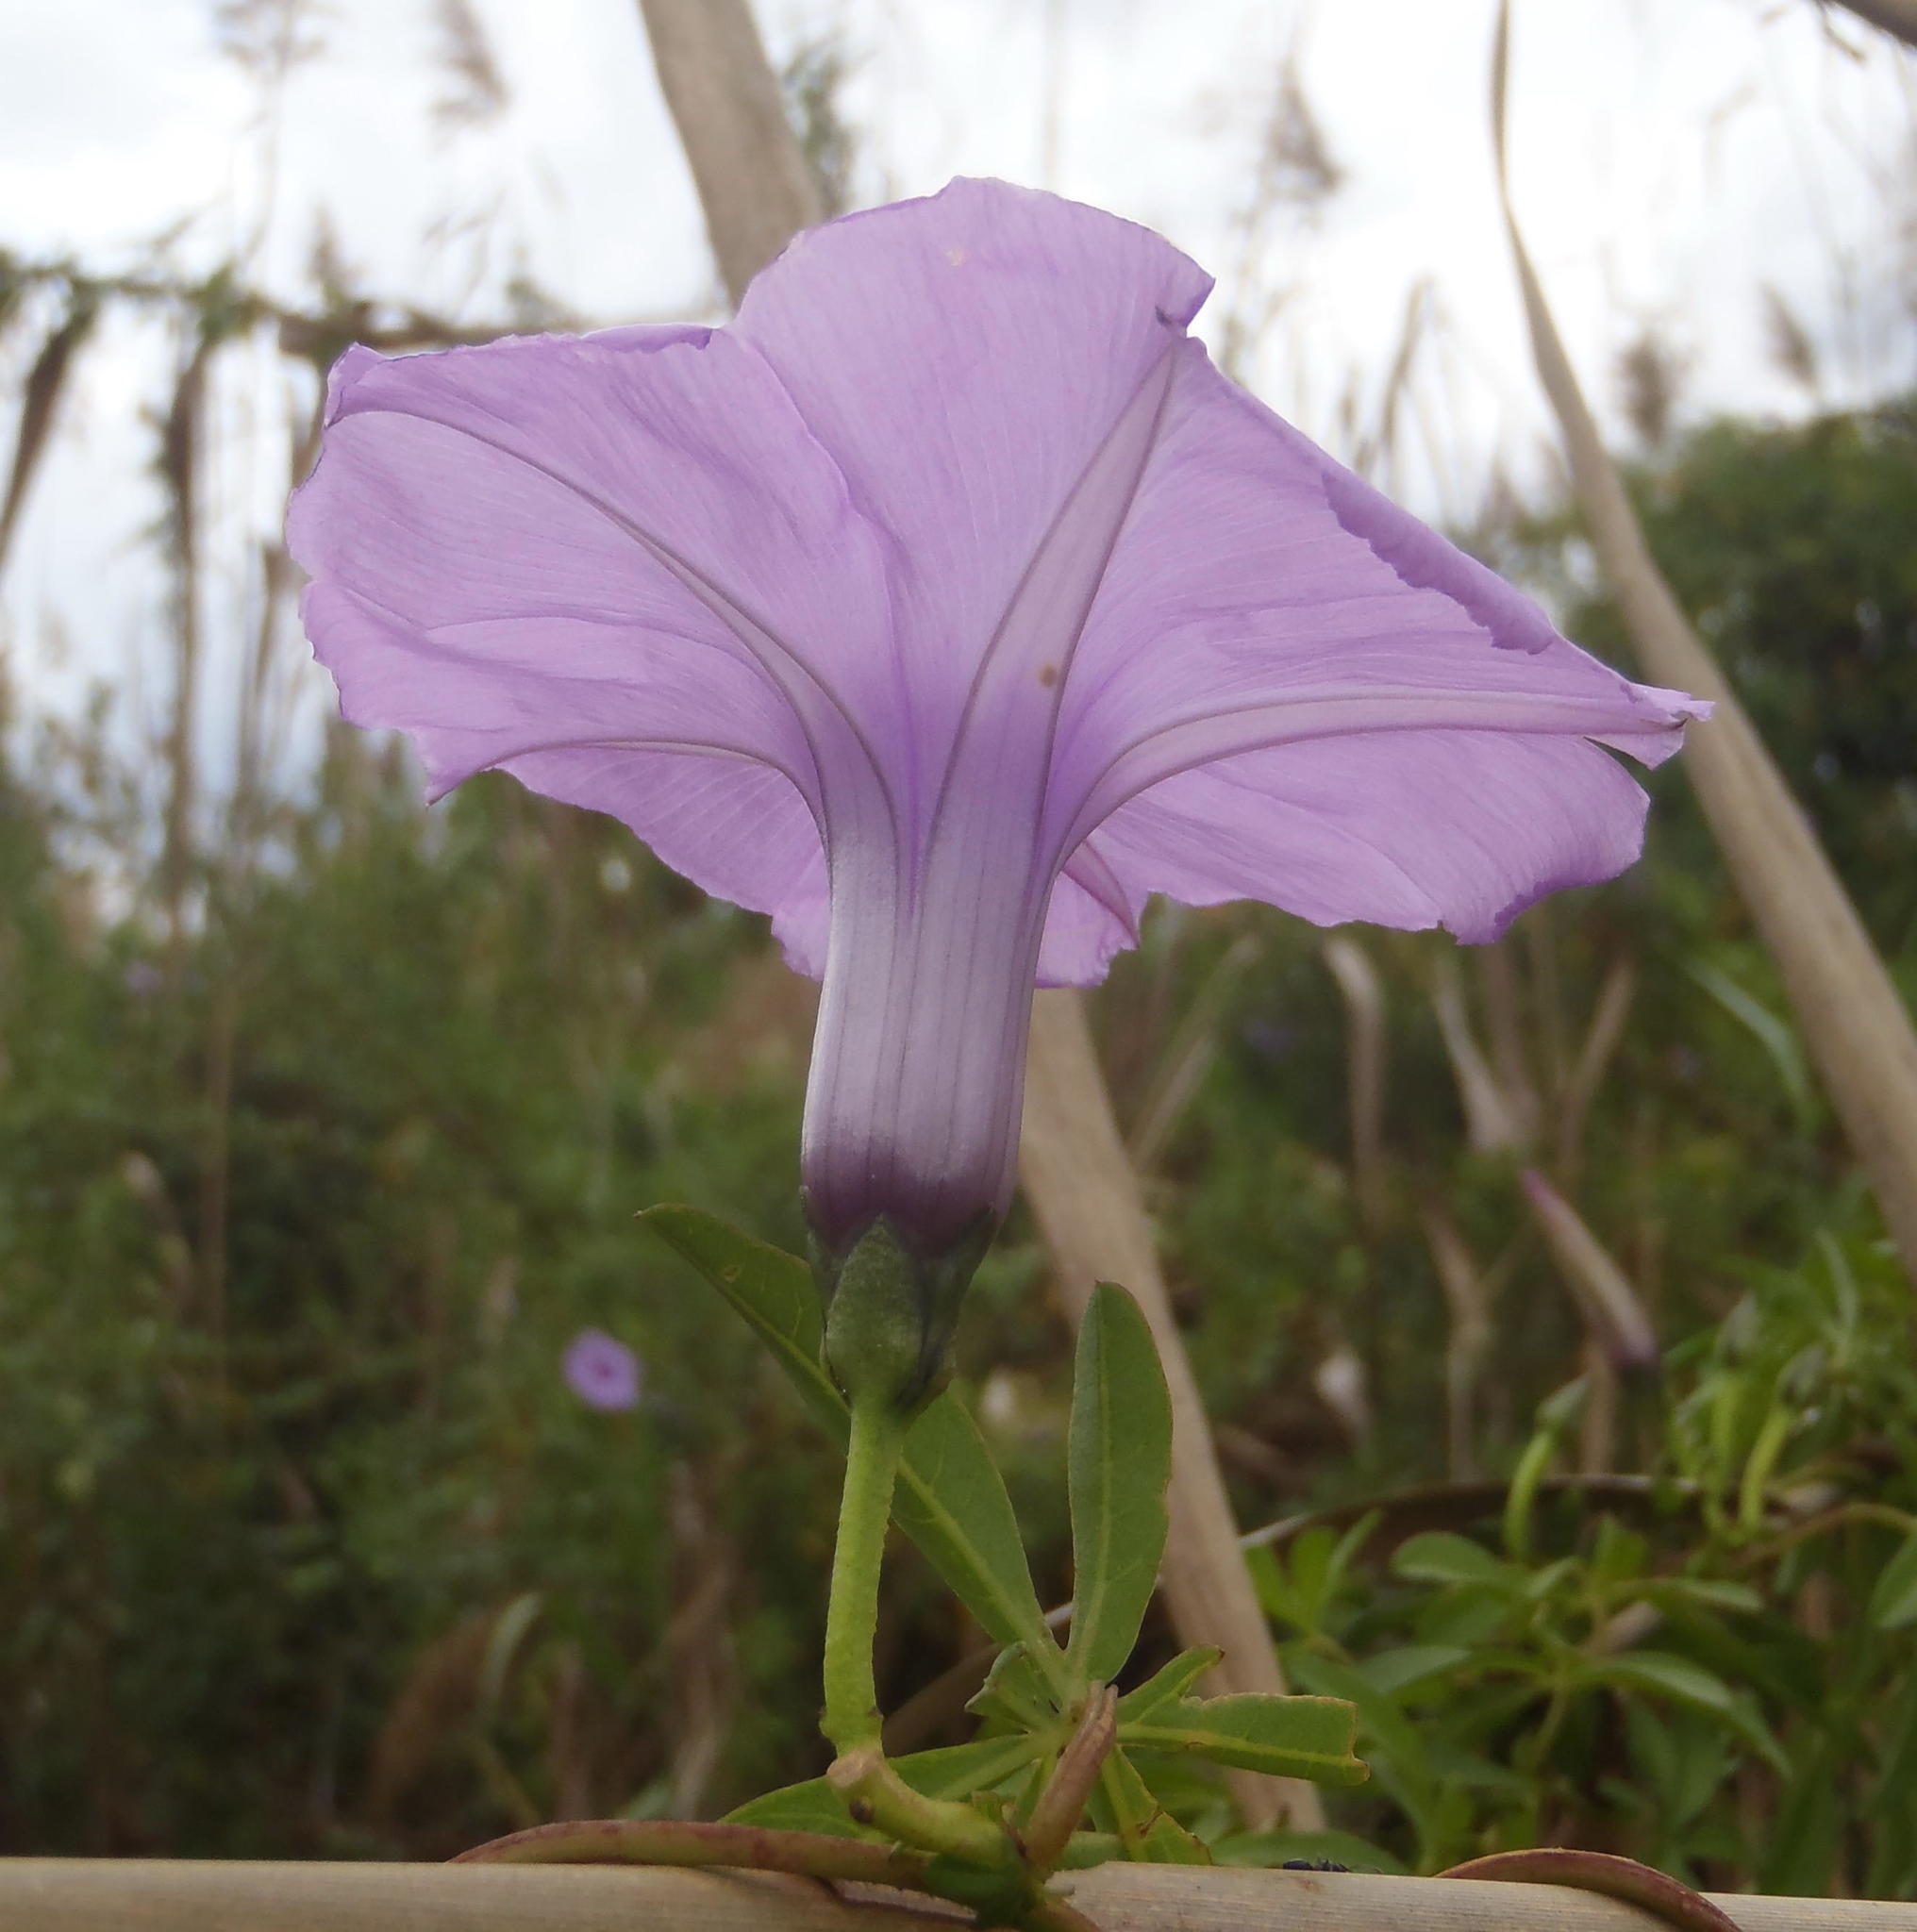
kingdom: Plantae
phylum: Tracheophyta
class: Magnoliopsida
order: Solanales
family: Convolvulaceae
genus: Ipomoea
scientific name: Ipomoea cairica
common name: Mile a minute vine
